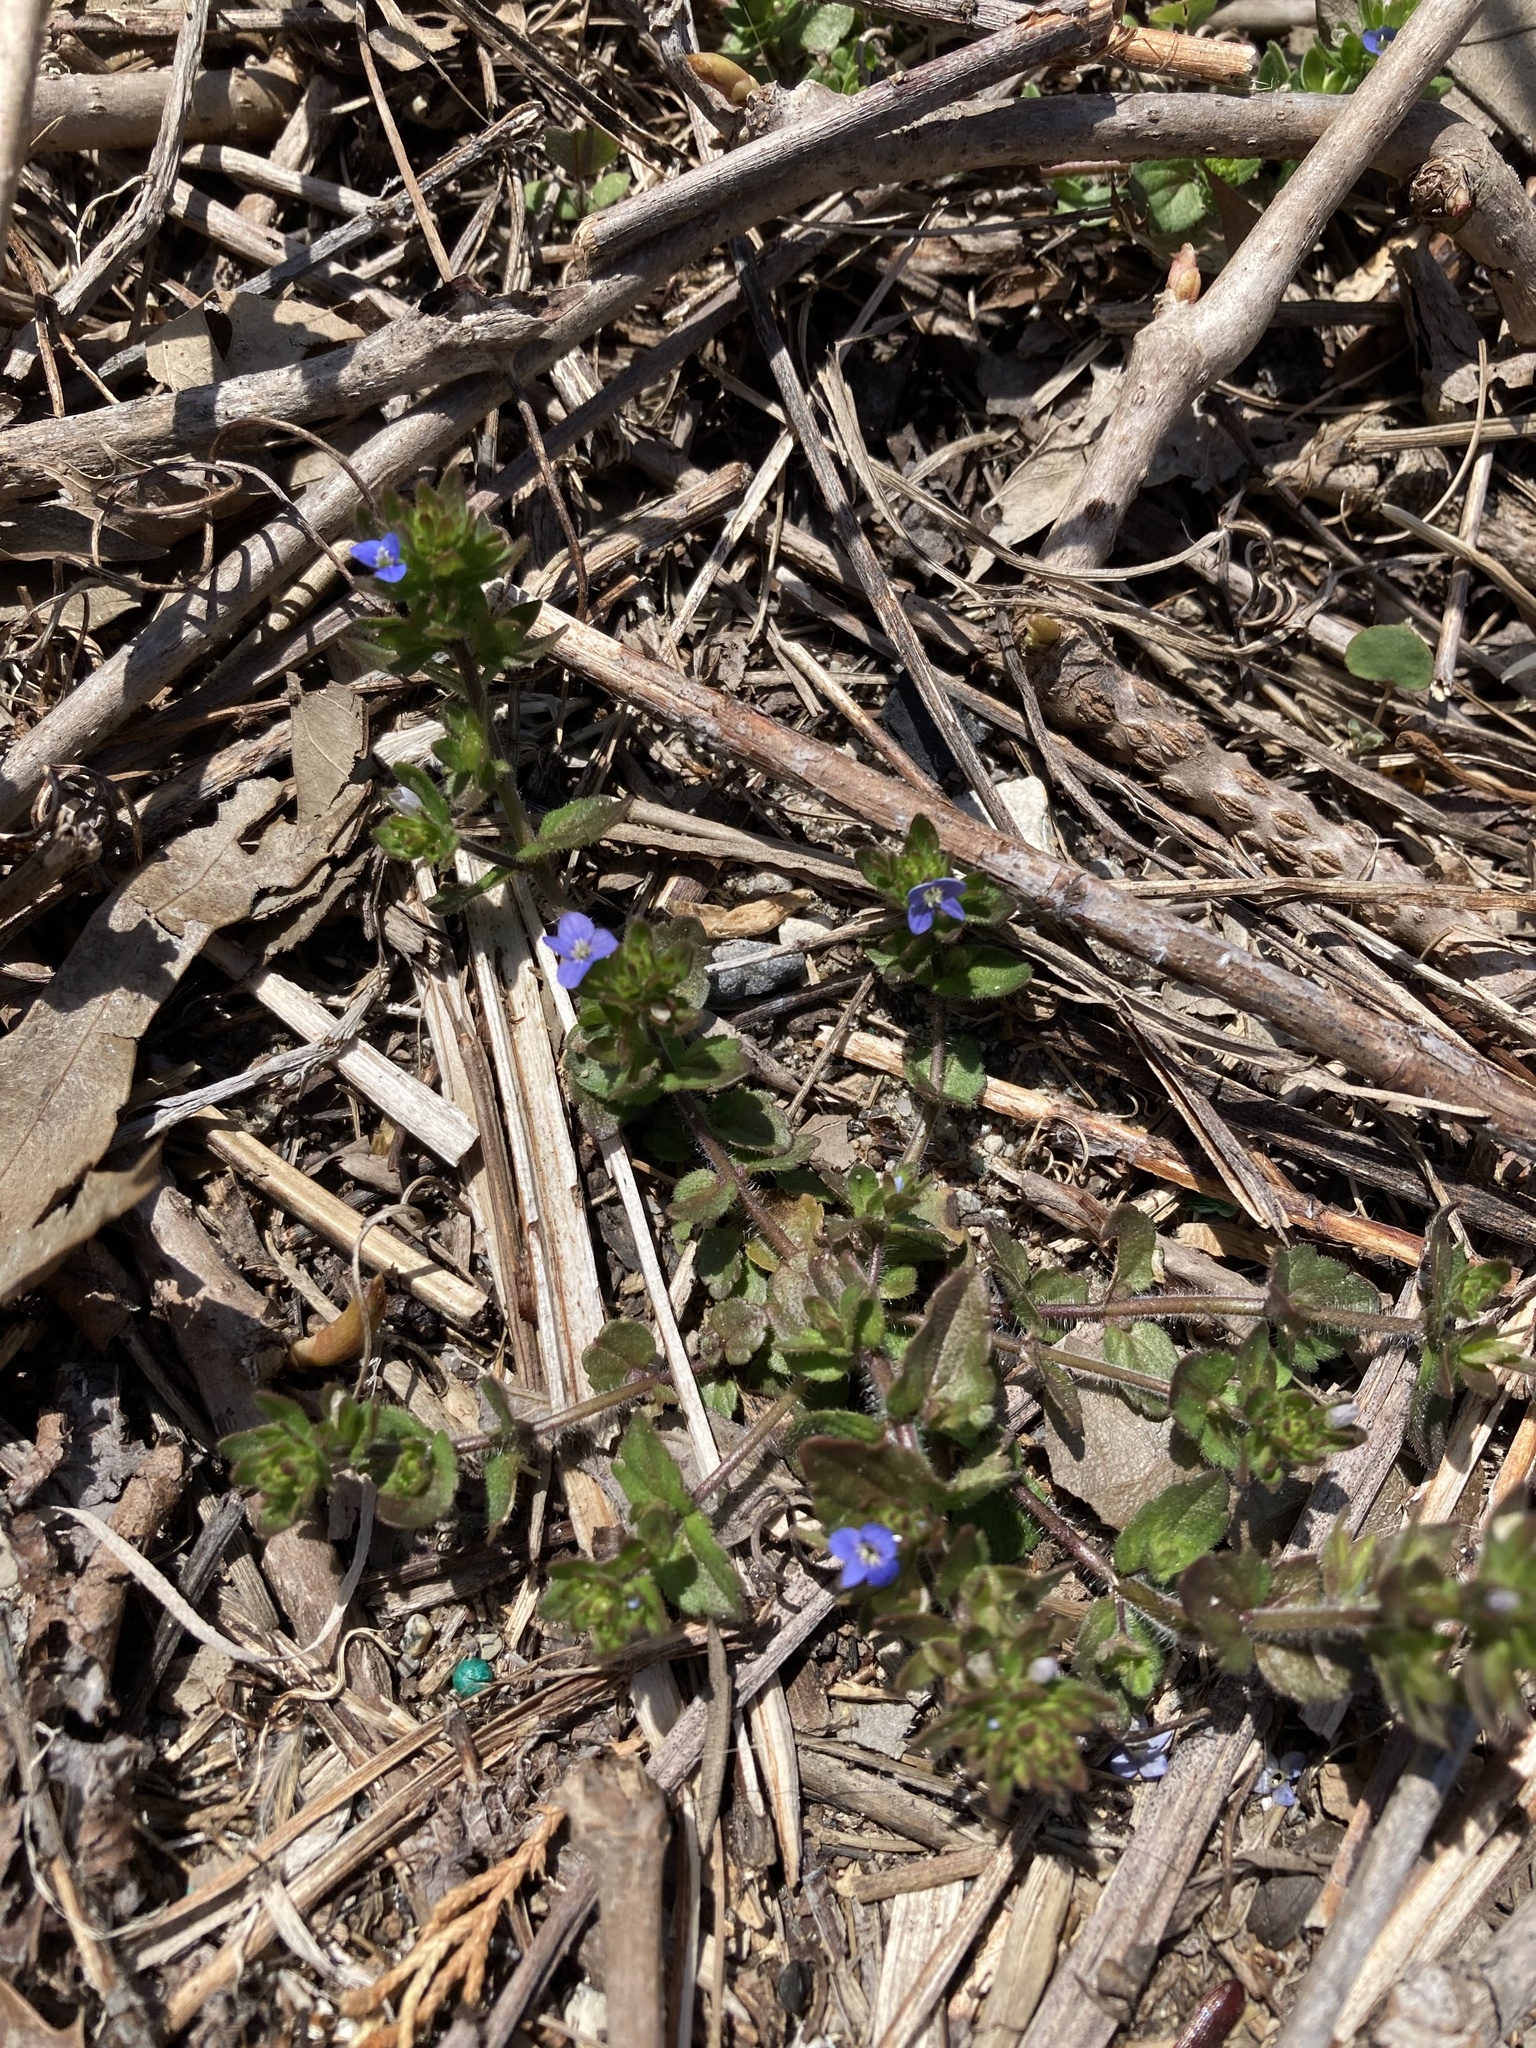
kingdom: Plantae
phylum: Tracheophyta
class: Magnoliopsida
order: Lamiales
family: Plantaginaceae
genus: Veronica
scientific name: Veronica arvensis
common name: Corn speedwell
